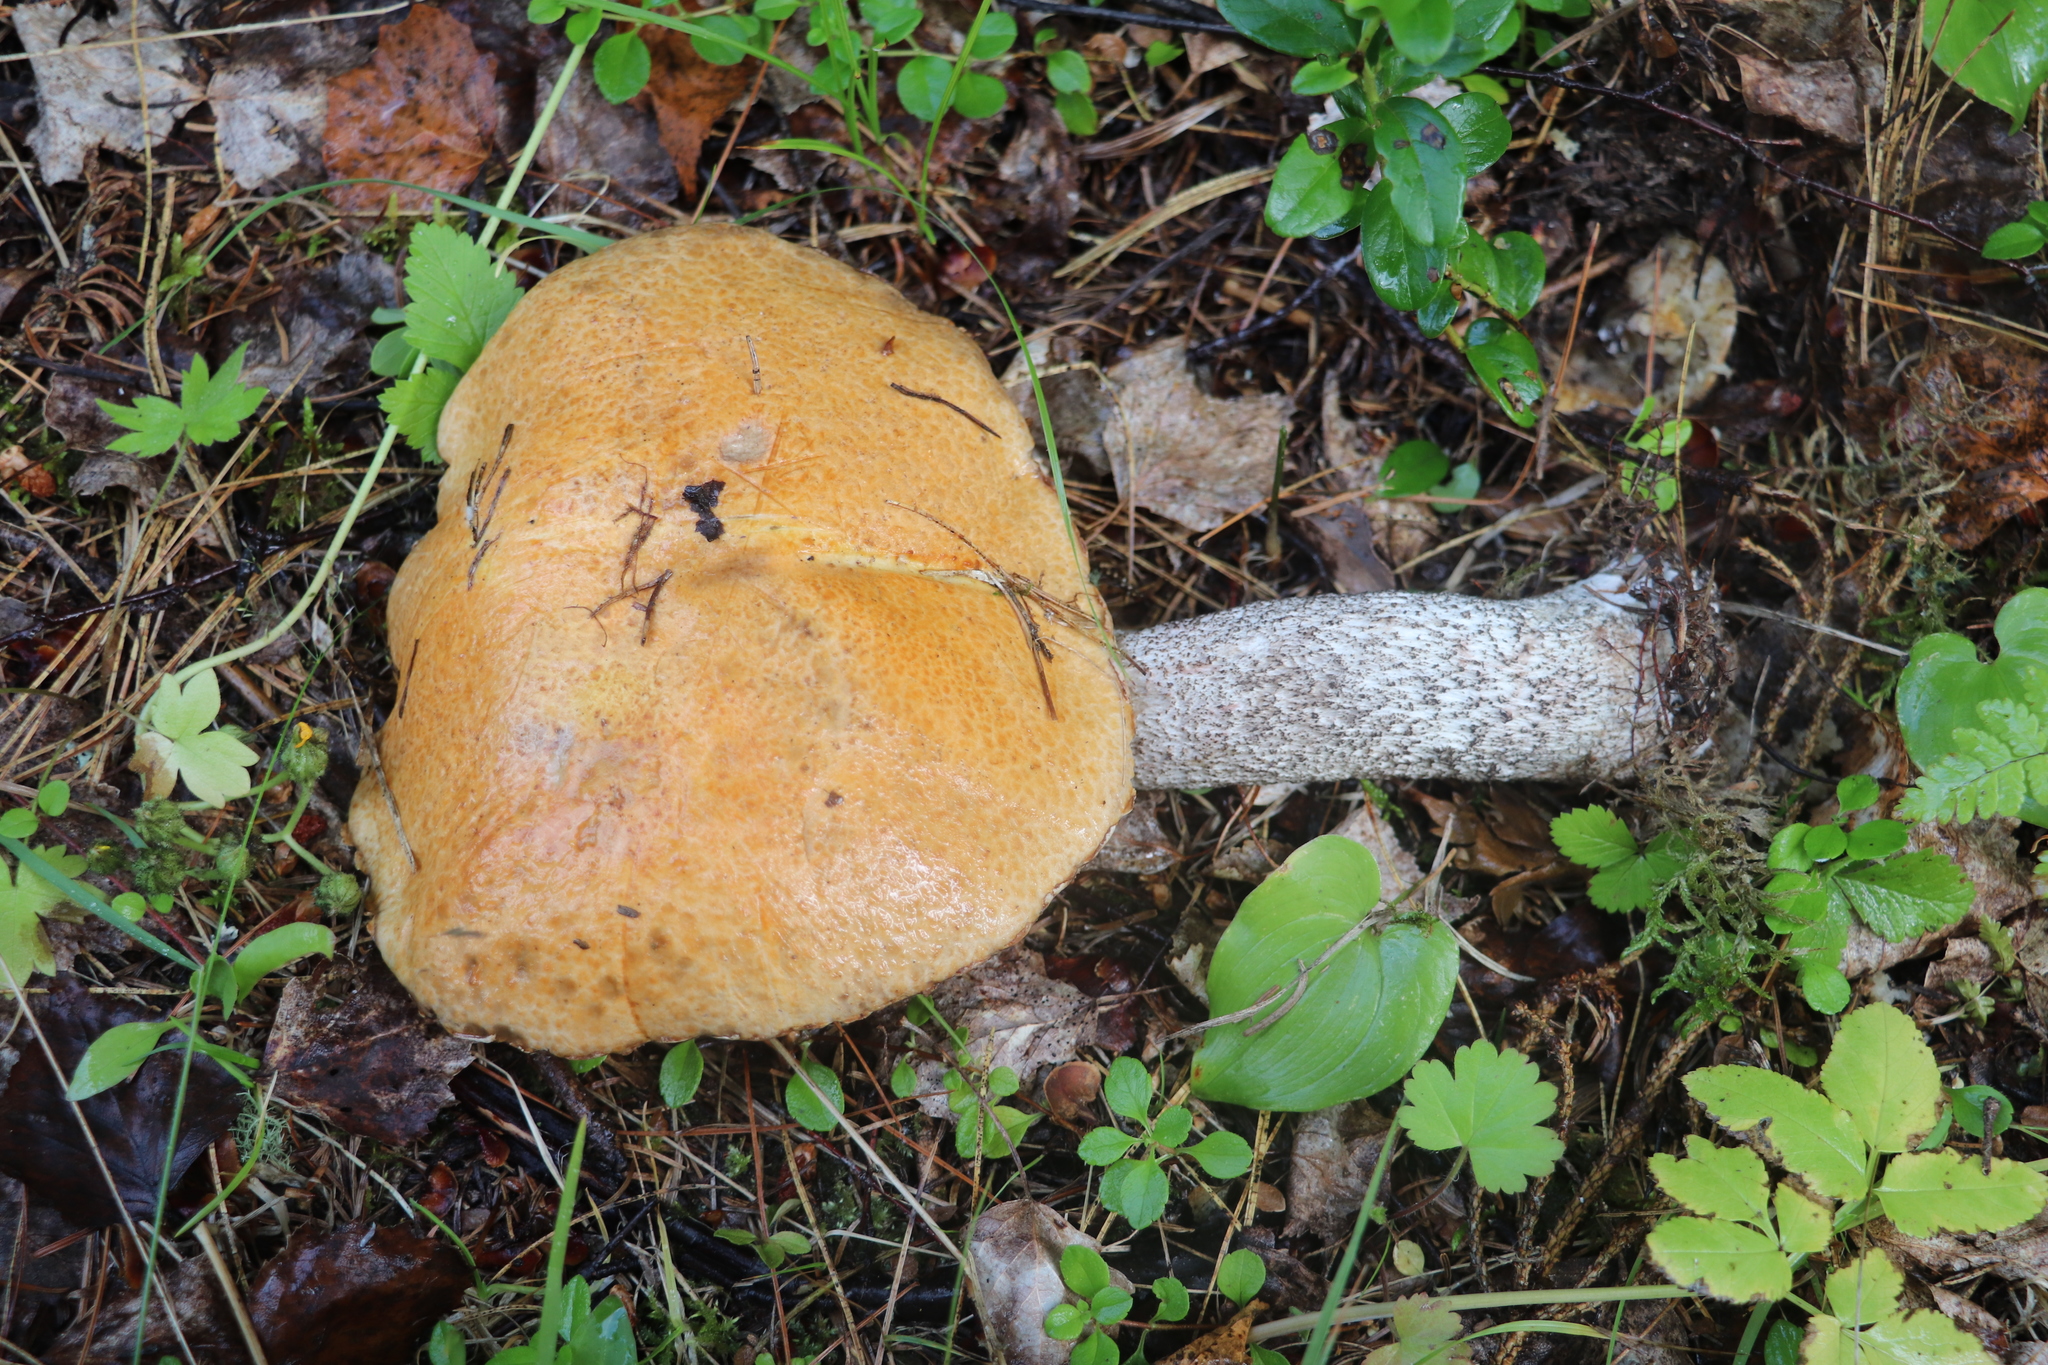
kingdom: Fungi
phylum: Basidiomycota
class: Agaricomycetes
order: Boletales
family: Boletaceae
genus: Leccinum
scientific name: Leccinum versipelle
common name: Orange birch bolete
